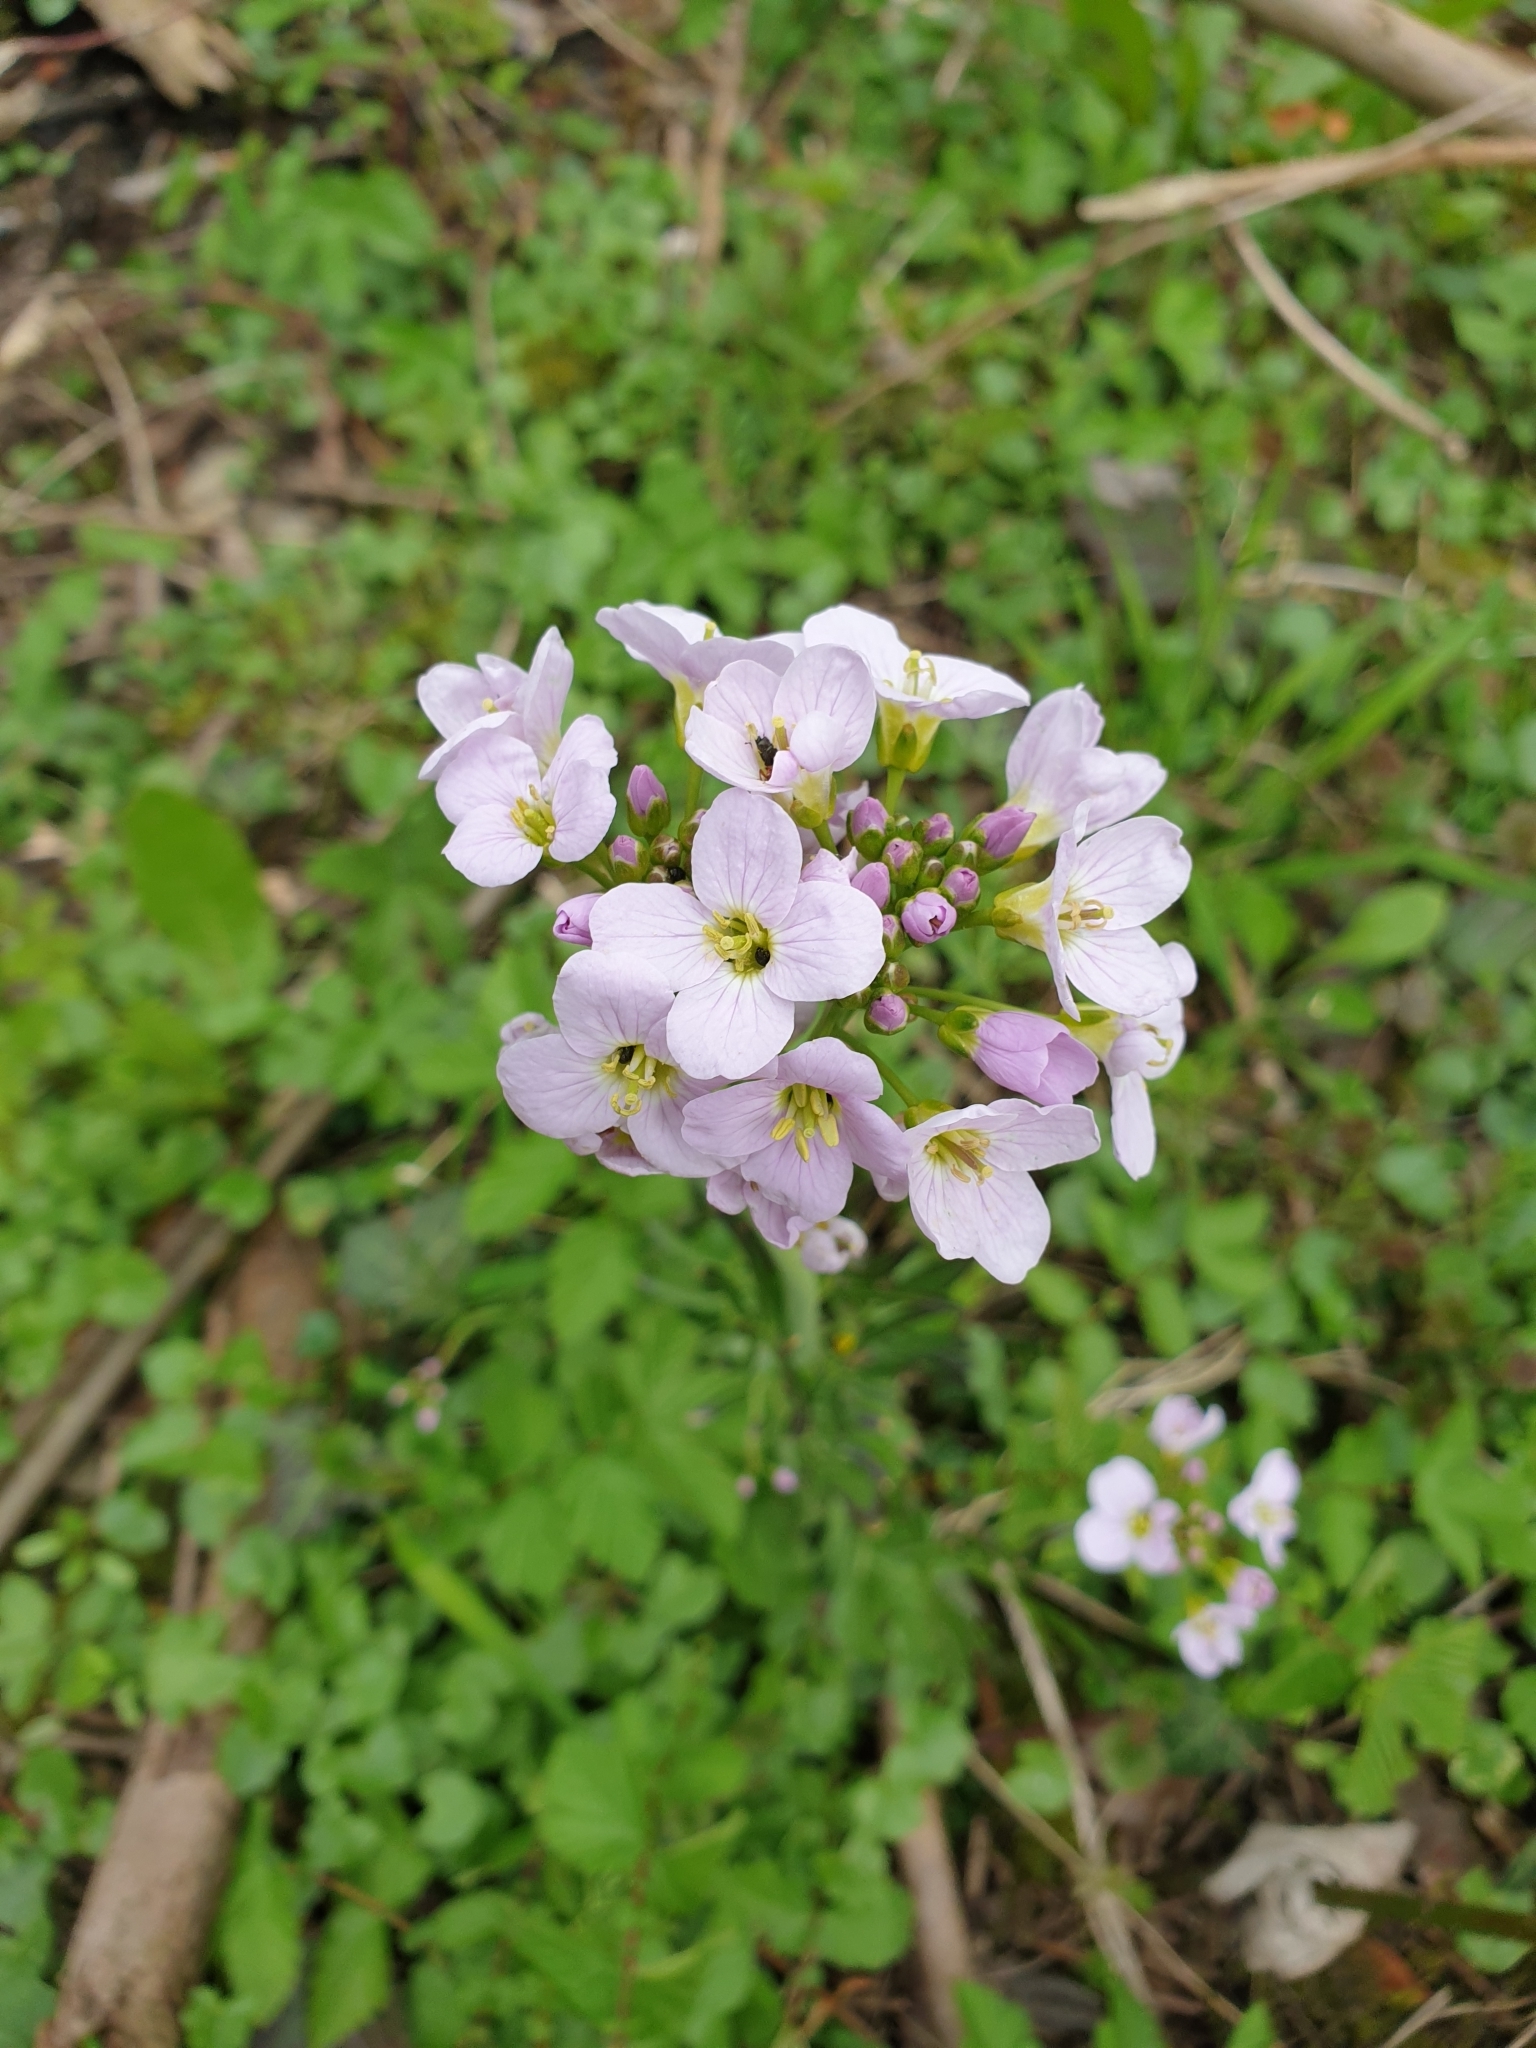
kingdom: Plantae
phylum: Tracheophyta
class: Magnoliopsida
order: Brassicales
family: Brassicaceae
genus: Cardamine
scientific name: Cardamine pratensis
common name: Cuckoo flower
